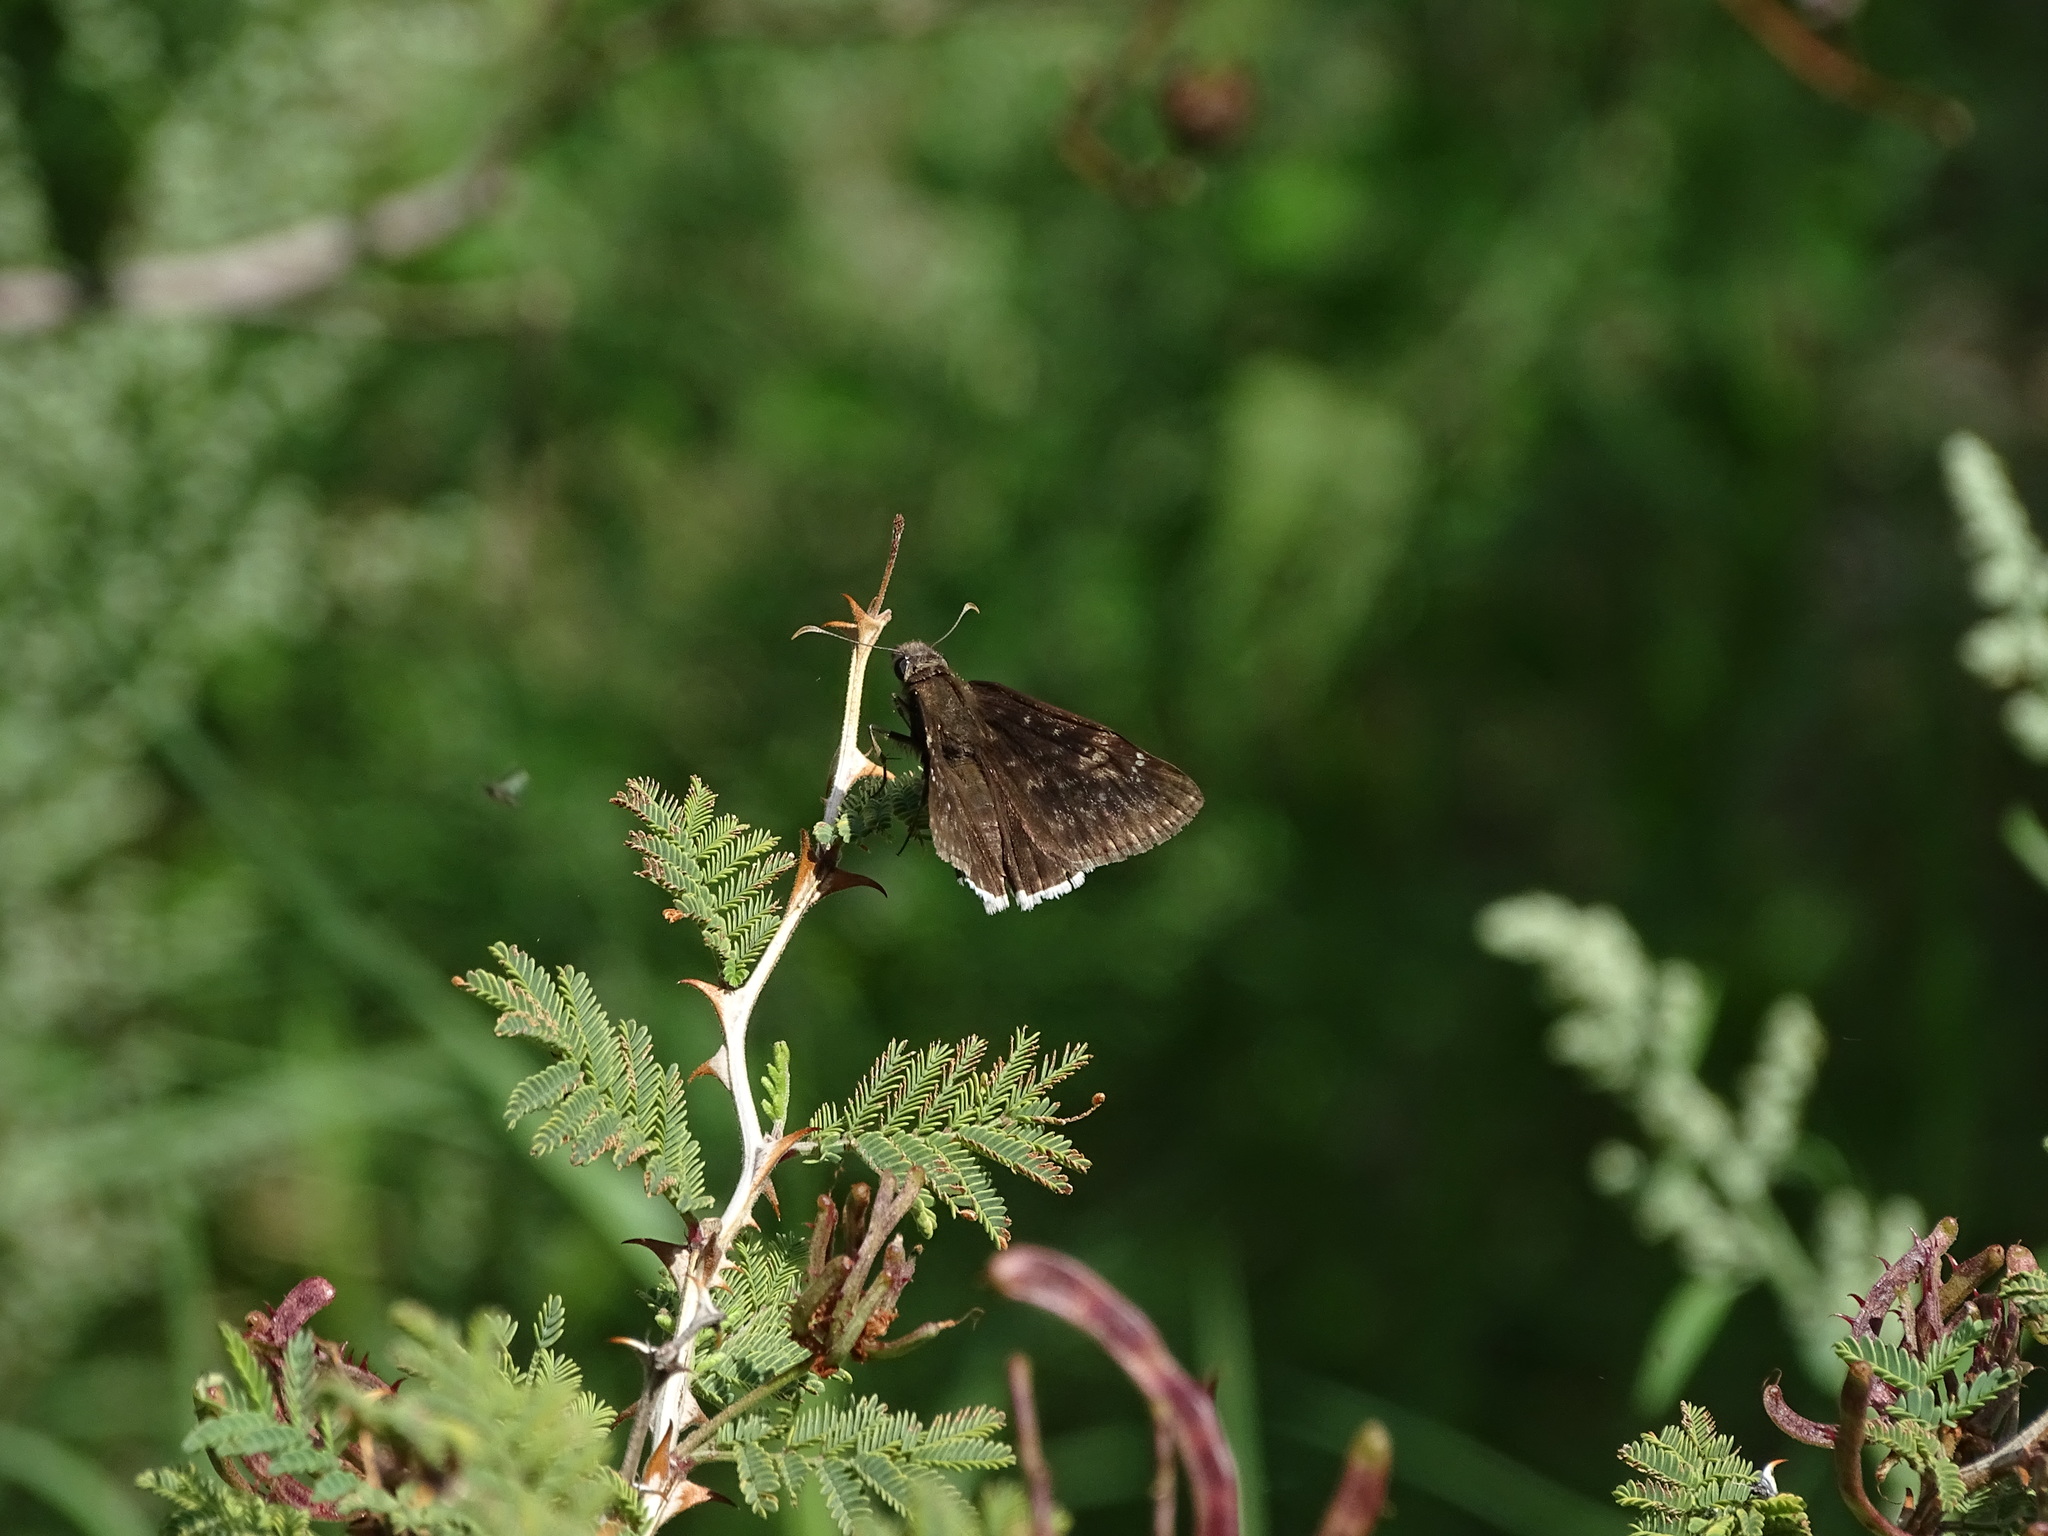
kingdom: Animalia
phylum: Arthropoda
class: Insecta
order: Lepidoptera
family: Hesperiidae
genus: Erynnis
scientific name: Erynnis tristis
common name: Mournful duskywing
